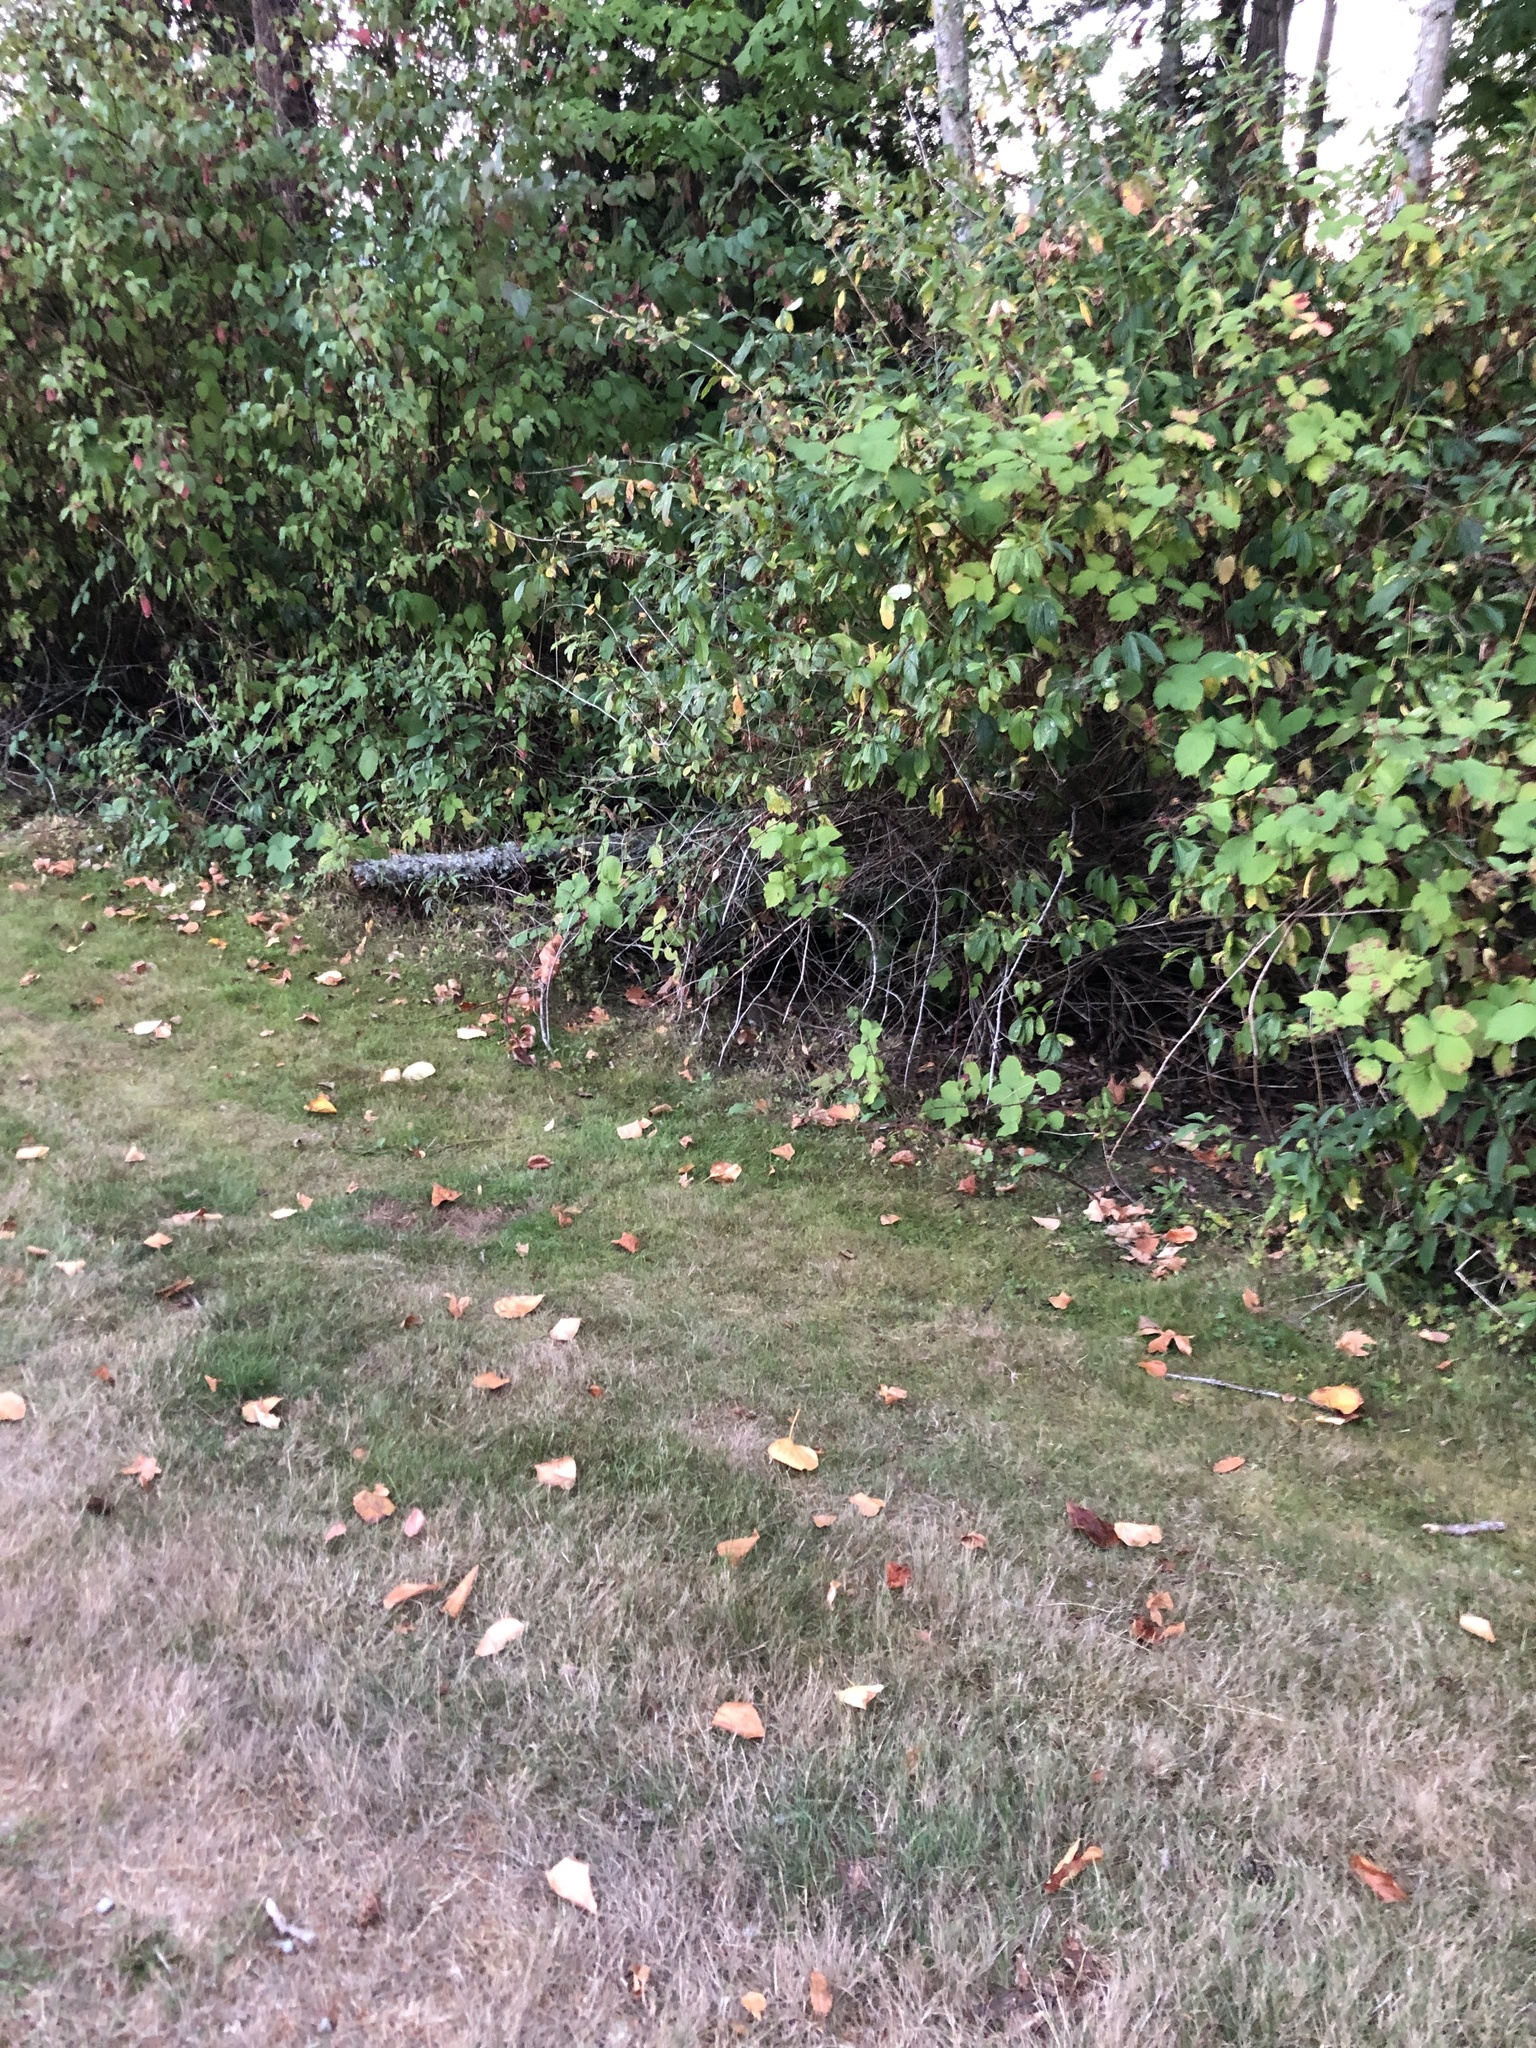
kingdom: Animalia
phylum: Chordata
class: Mammalia
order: Lagomorpha
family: Leporidae
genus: Sylvilagus
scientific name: Sylvilagus floridanus
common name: Eastern cottontail
